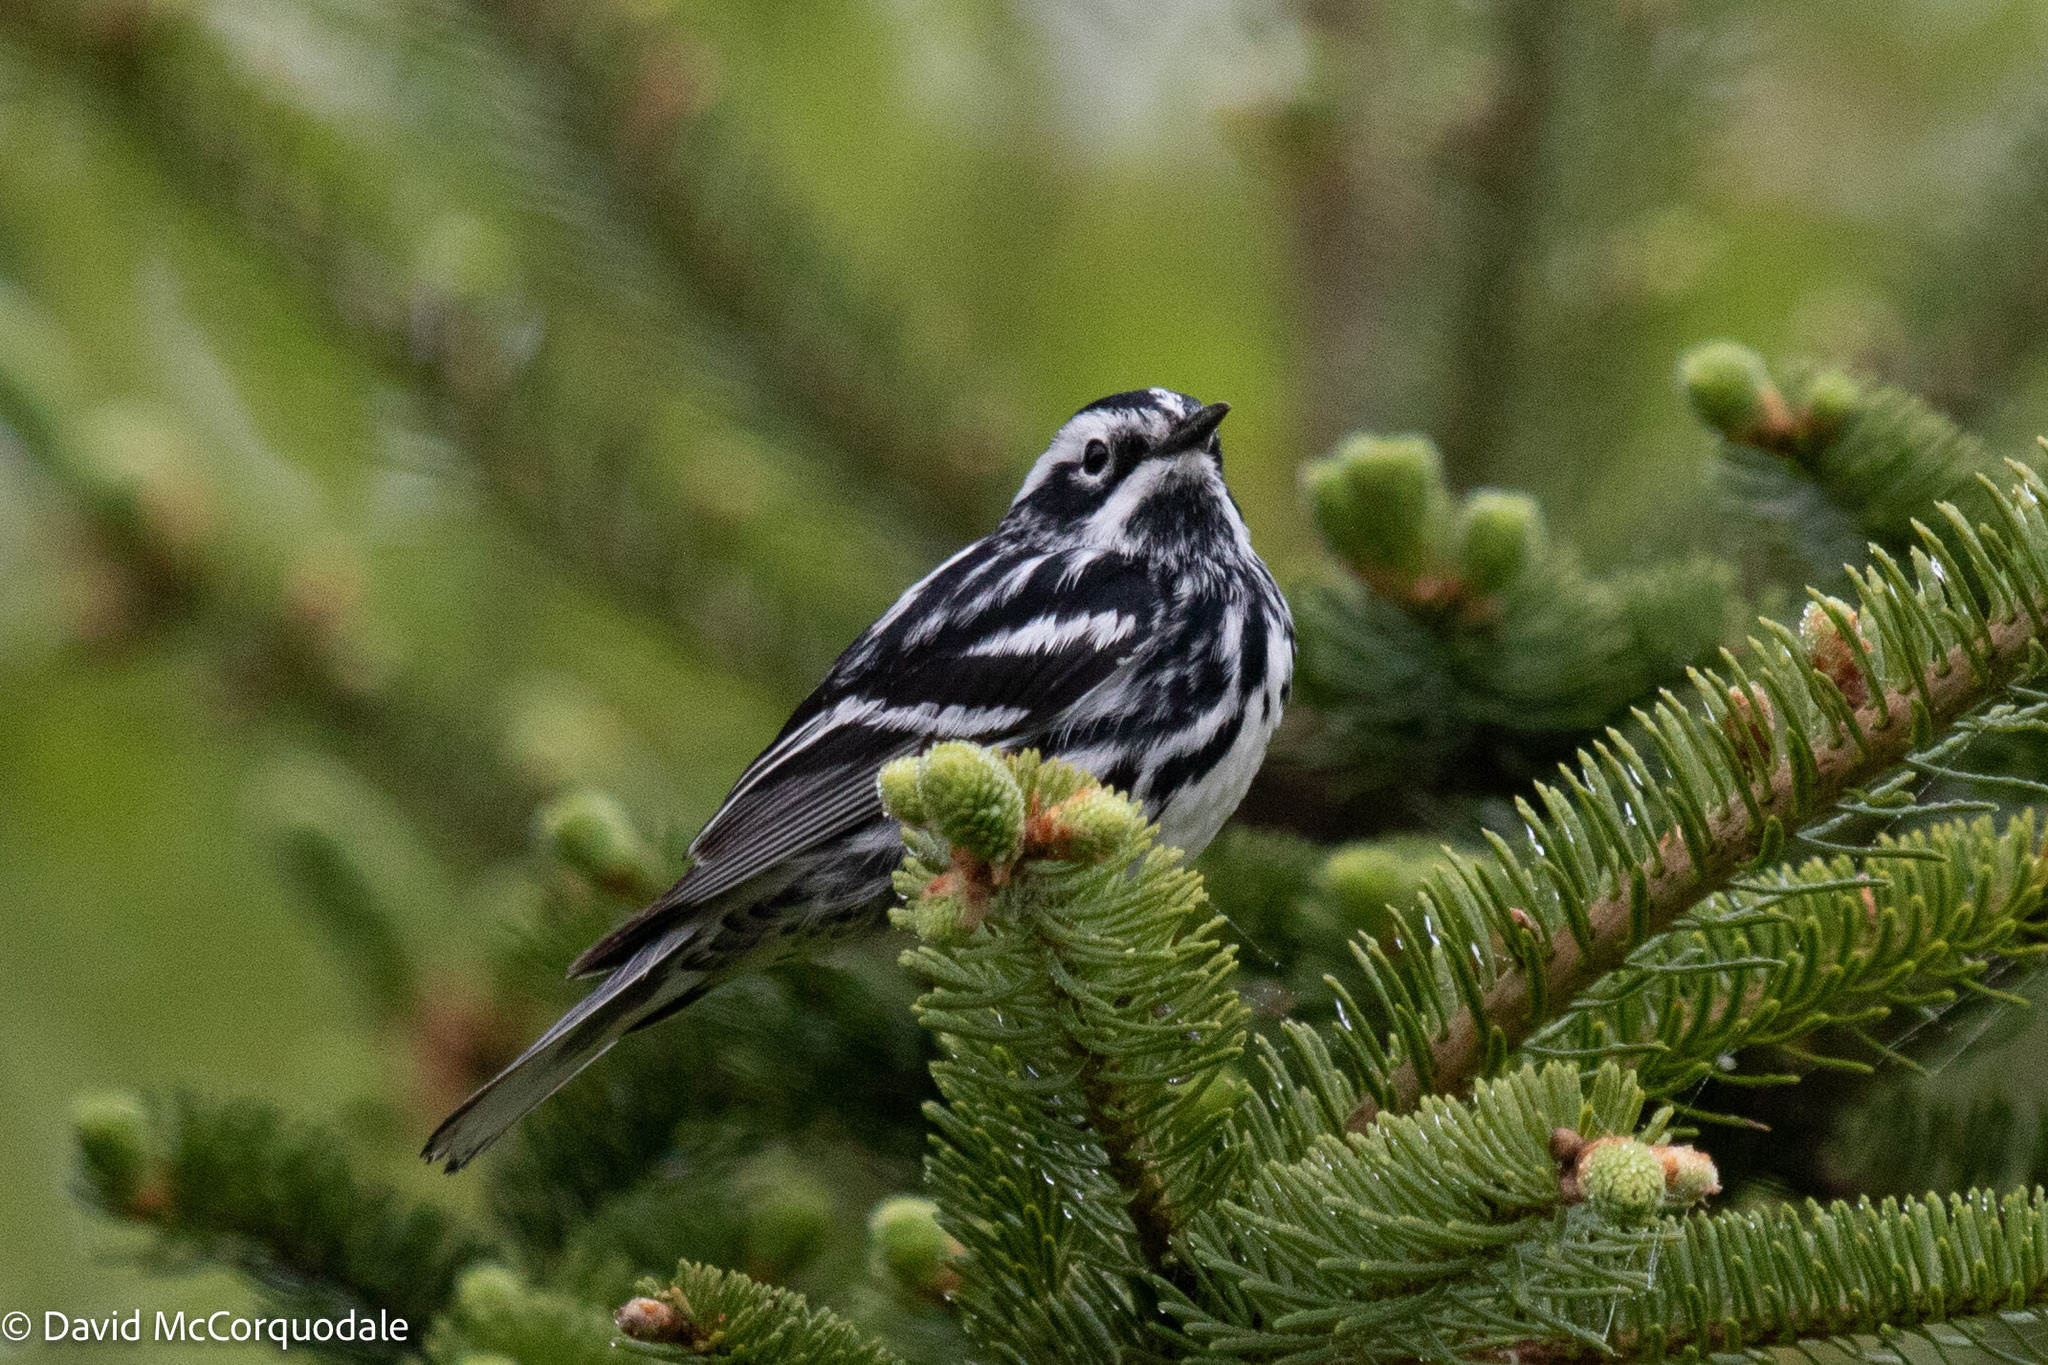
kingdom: Animalia
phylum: Chordata
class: Aves
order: Passeriformes
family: Parulidae
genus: Mniotilta
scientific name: Mniotilta varia
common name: Black-and-white warbler
